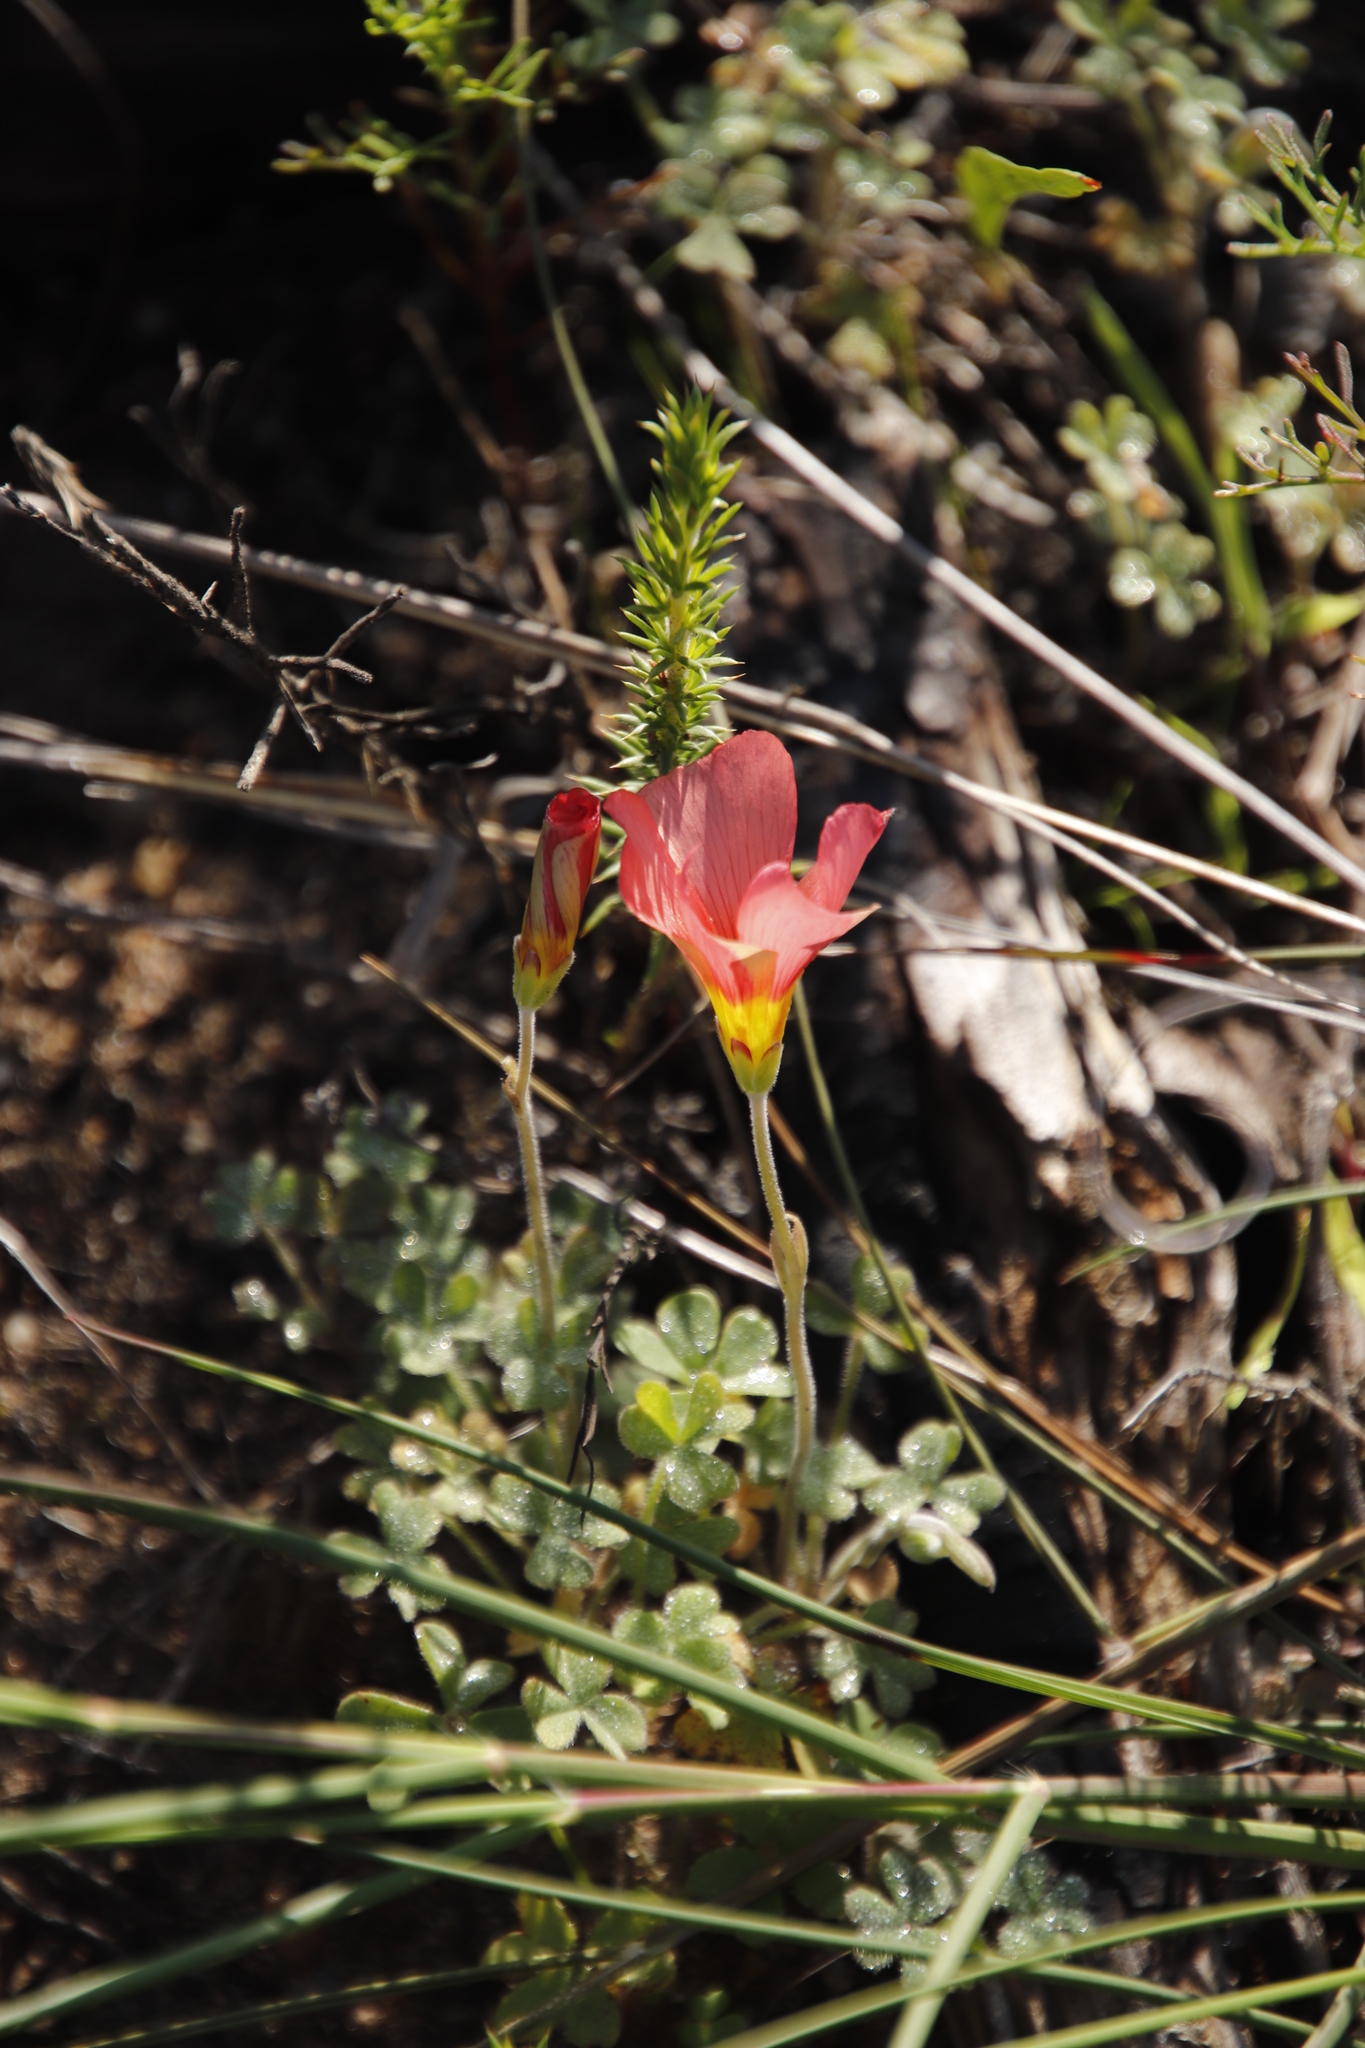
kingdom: Plantae
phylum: Tracheophyta
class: Magnoliopsida
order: Oxalidales
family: Oxalidaceae
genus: Oxalis
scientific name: Oxalis obtusa
